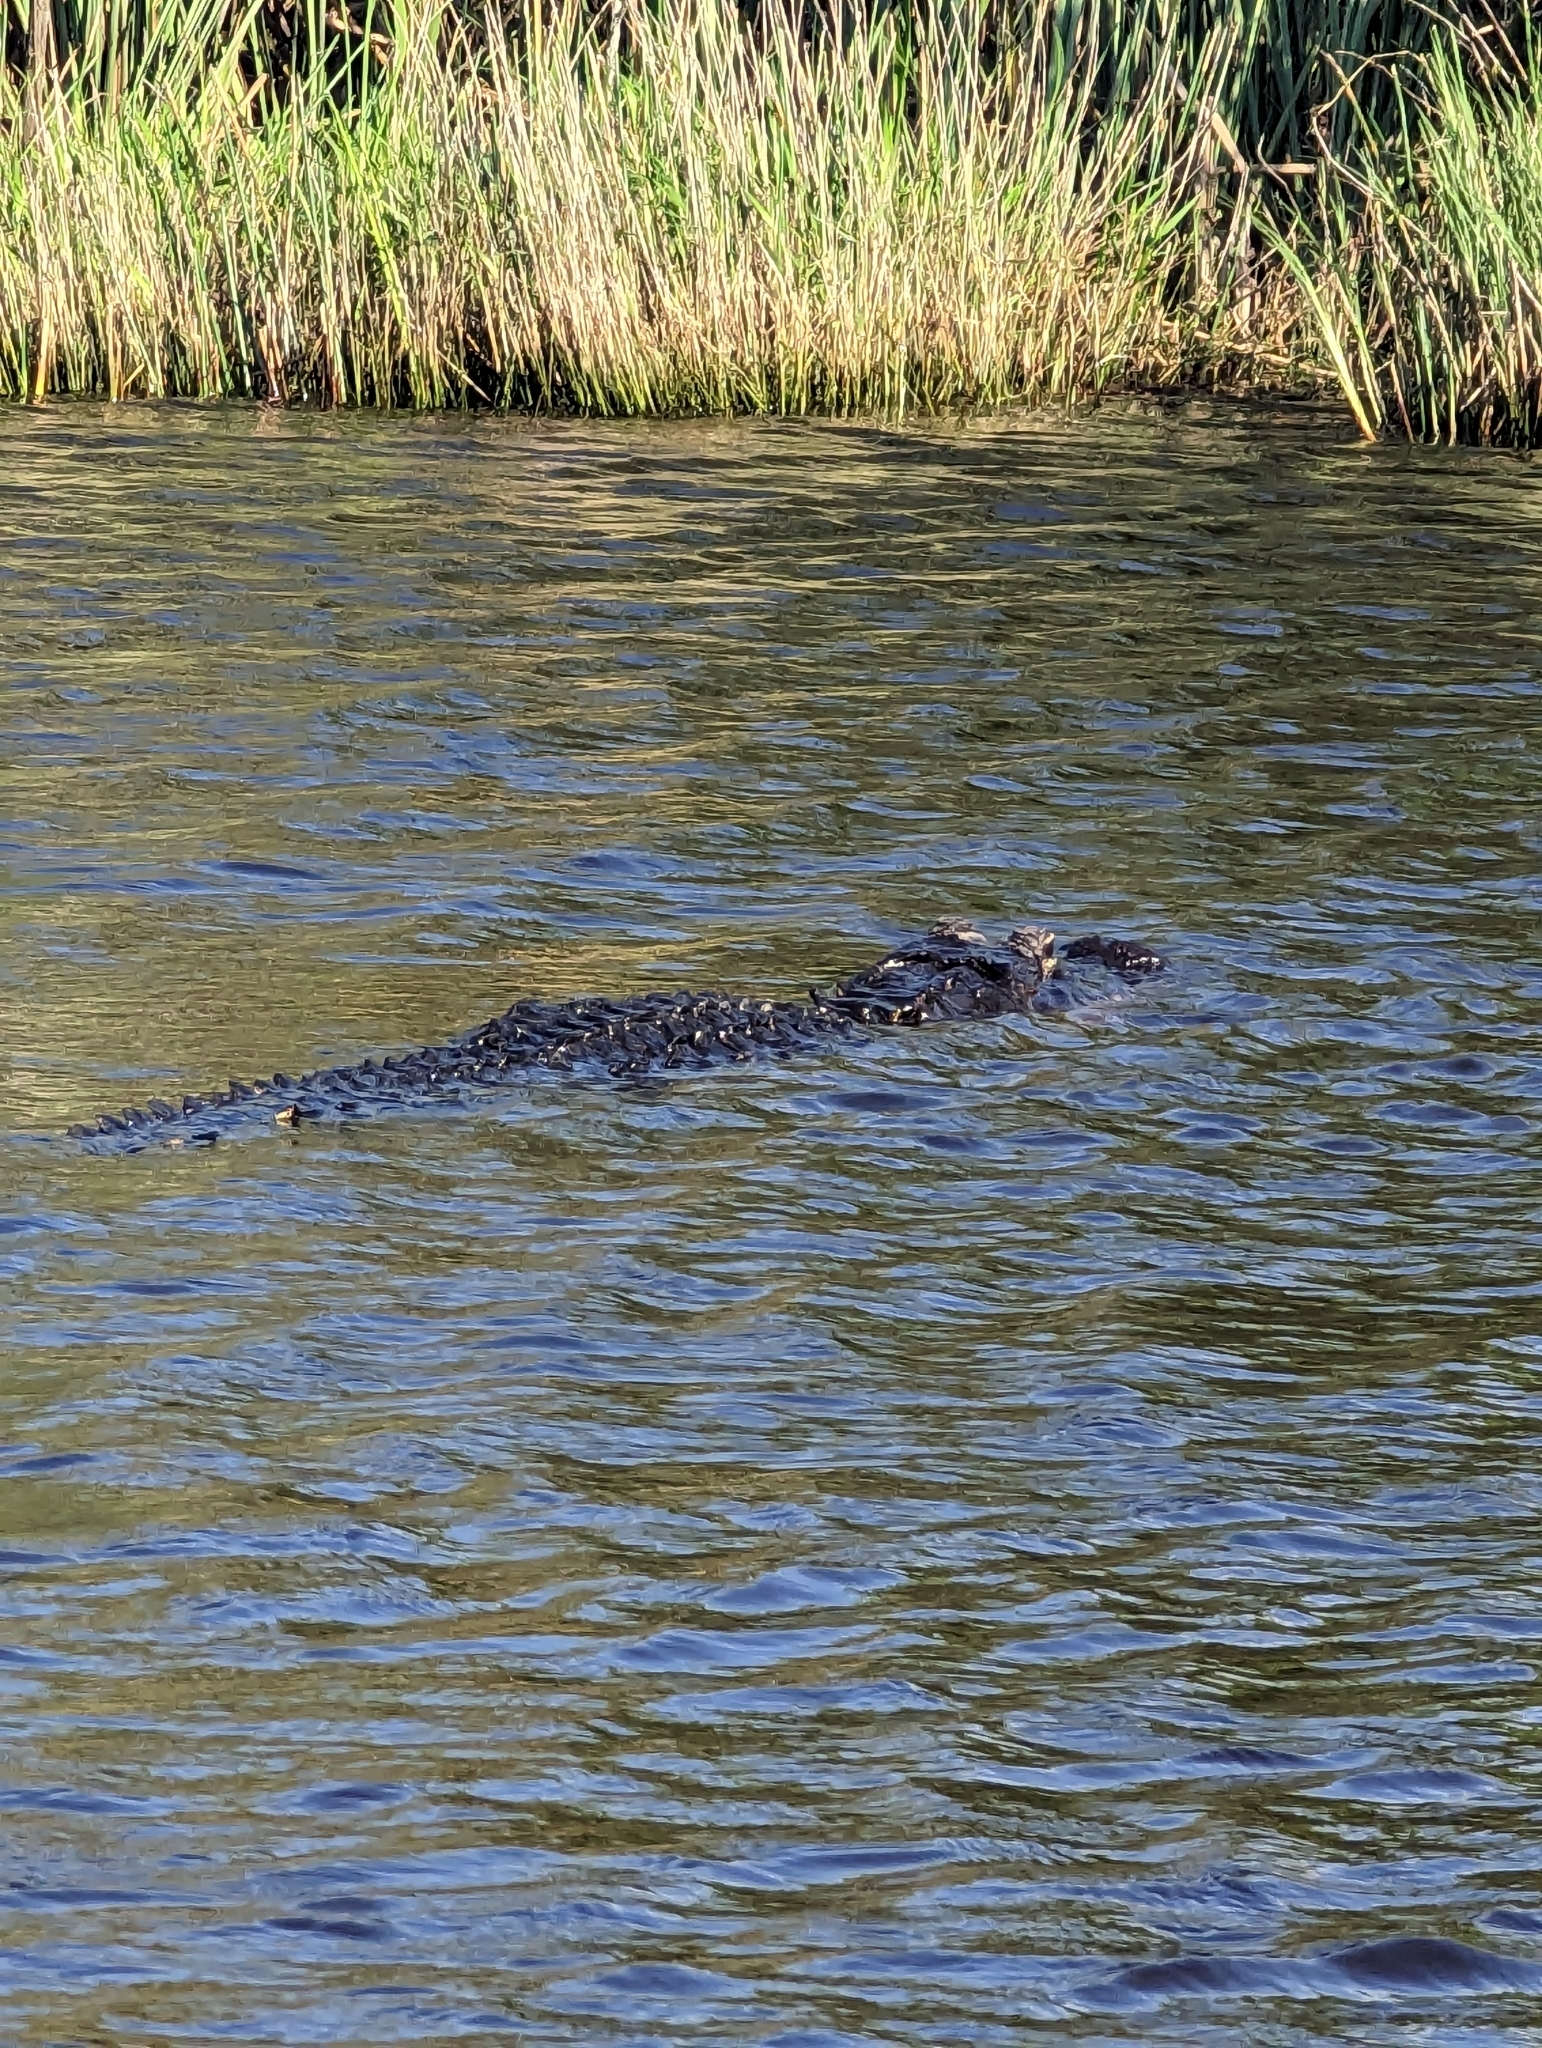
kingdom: Animalia
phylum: Chordata
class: Crocodylia
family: Alligatoridae
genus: Alligator
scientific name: Alligator mississippiensis
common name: American alligator
